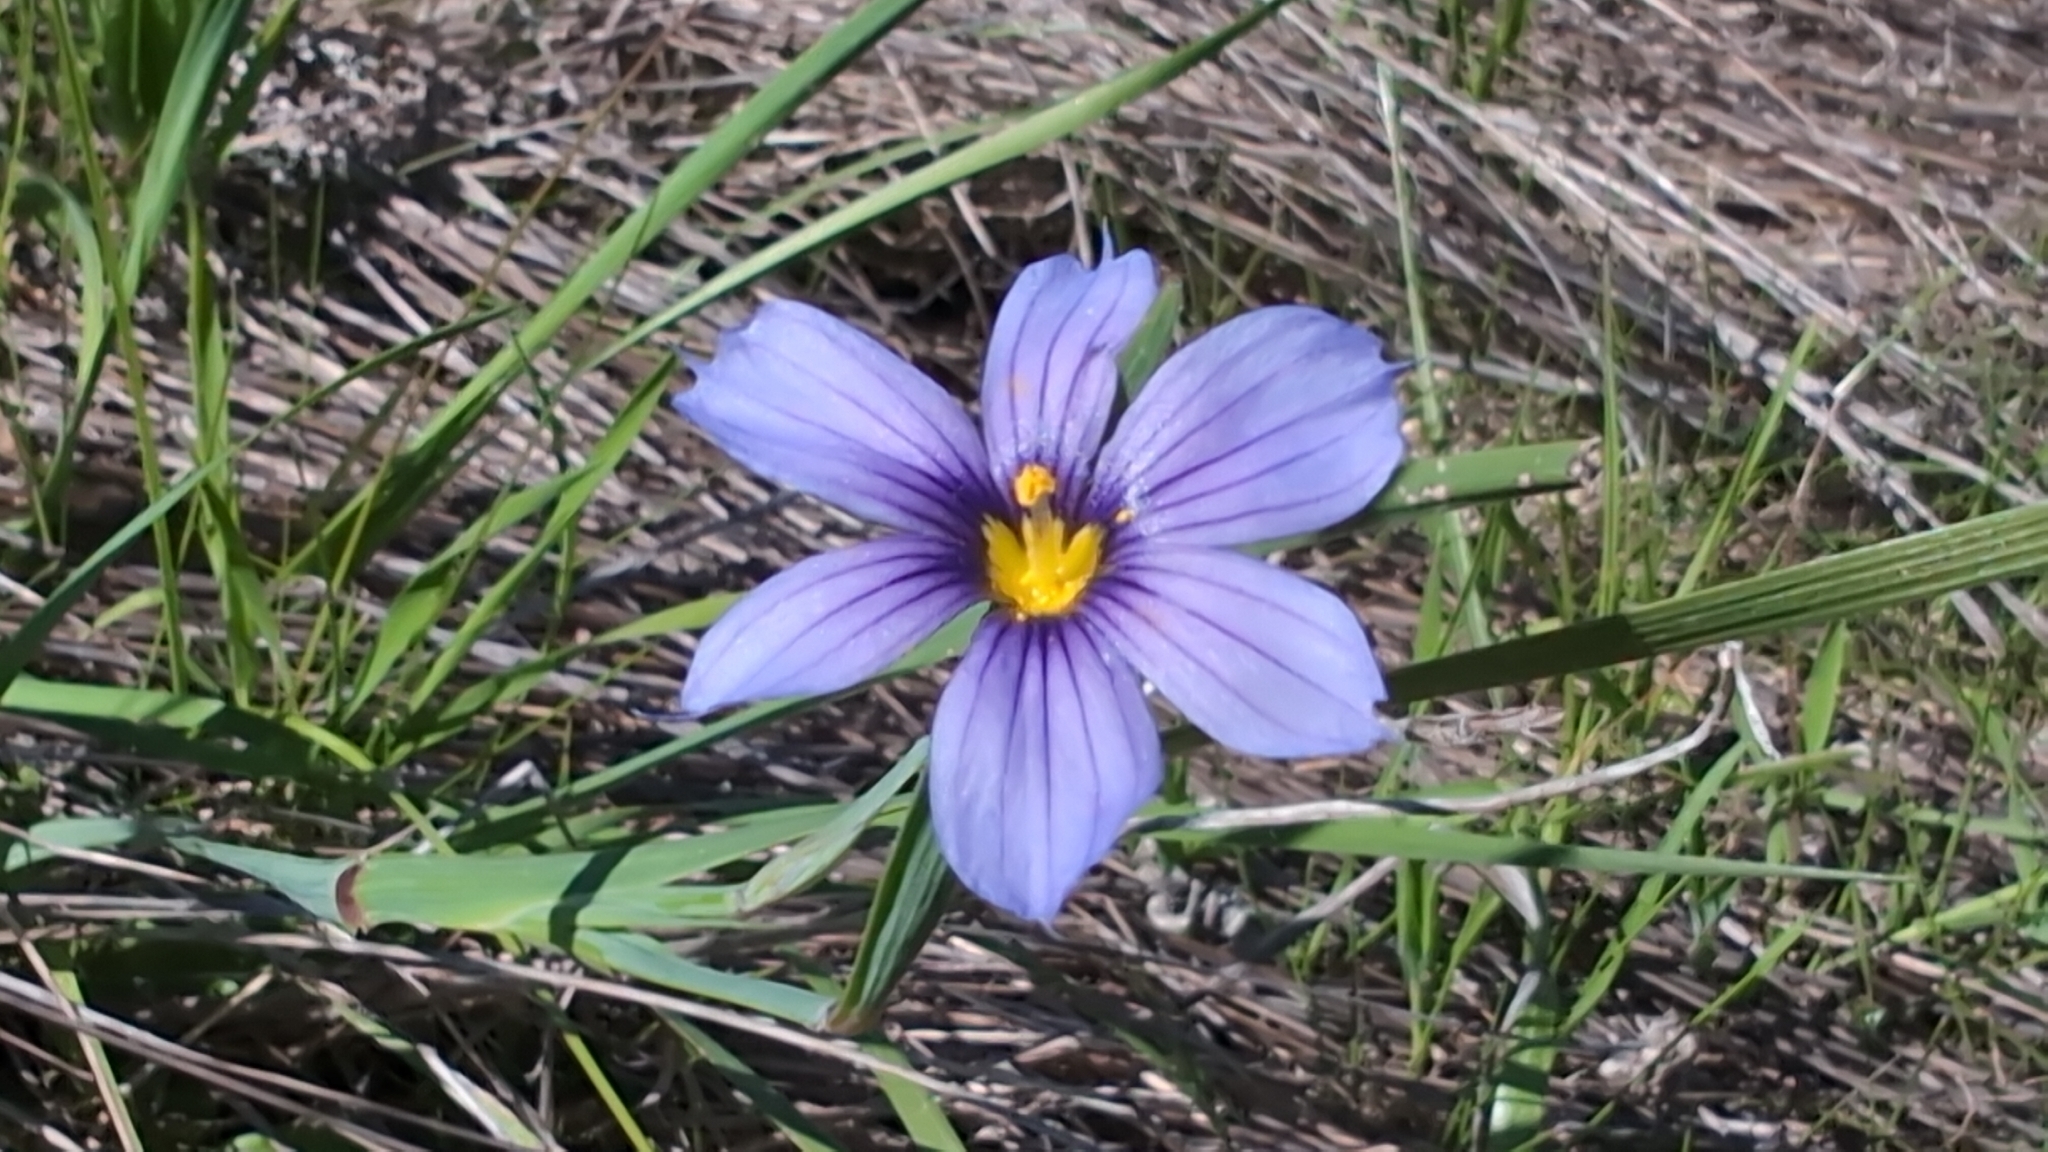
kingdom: Plantae
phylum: Tracheophyta
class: Liliopsida
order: Asparagales
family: Iridaceae
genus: Sisyrinchium
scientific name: Sisyrinchium bellum
